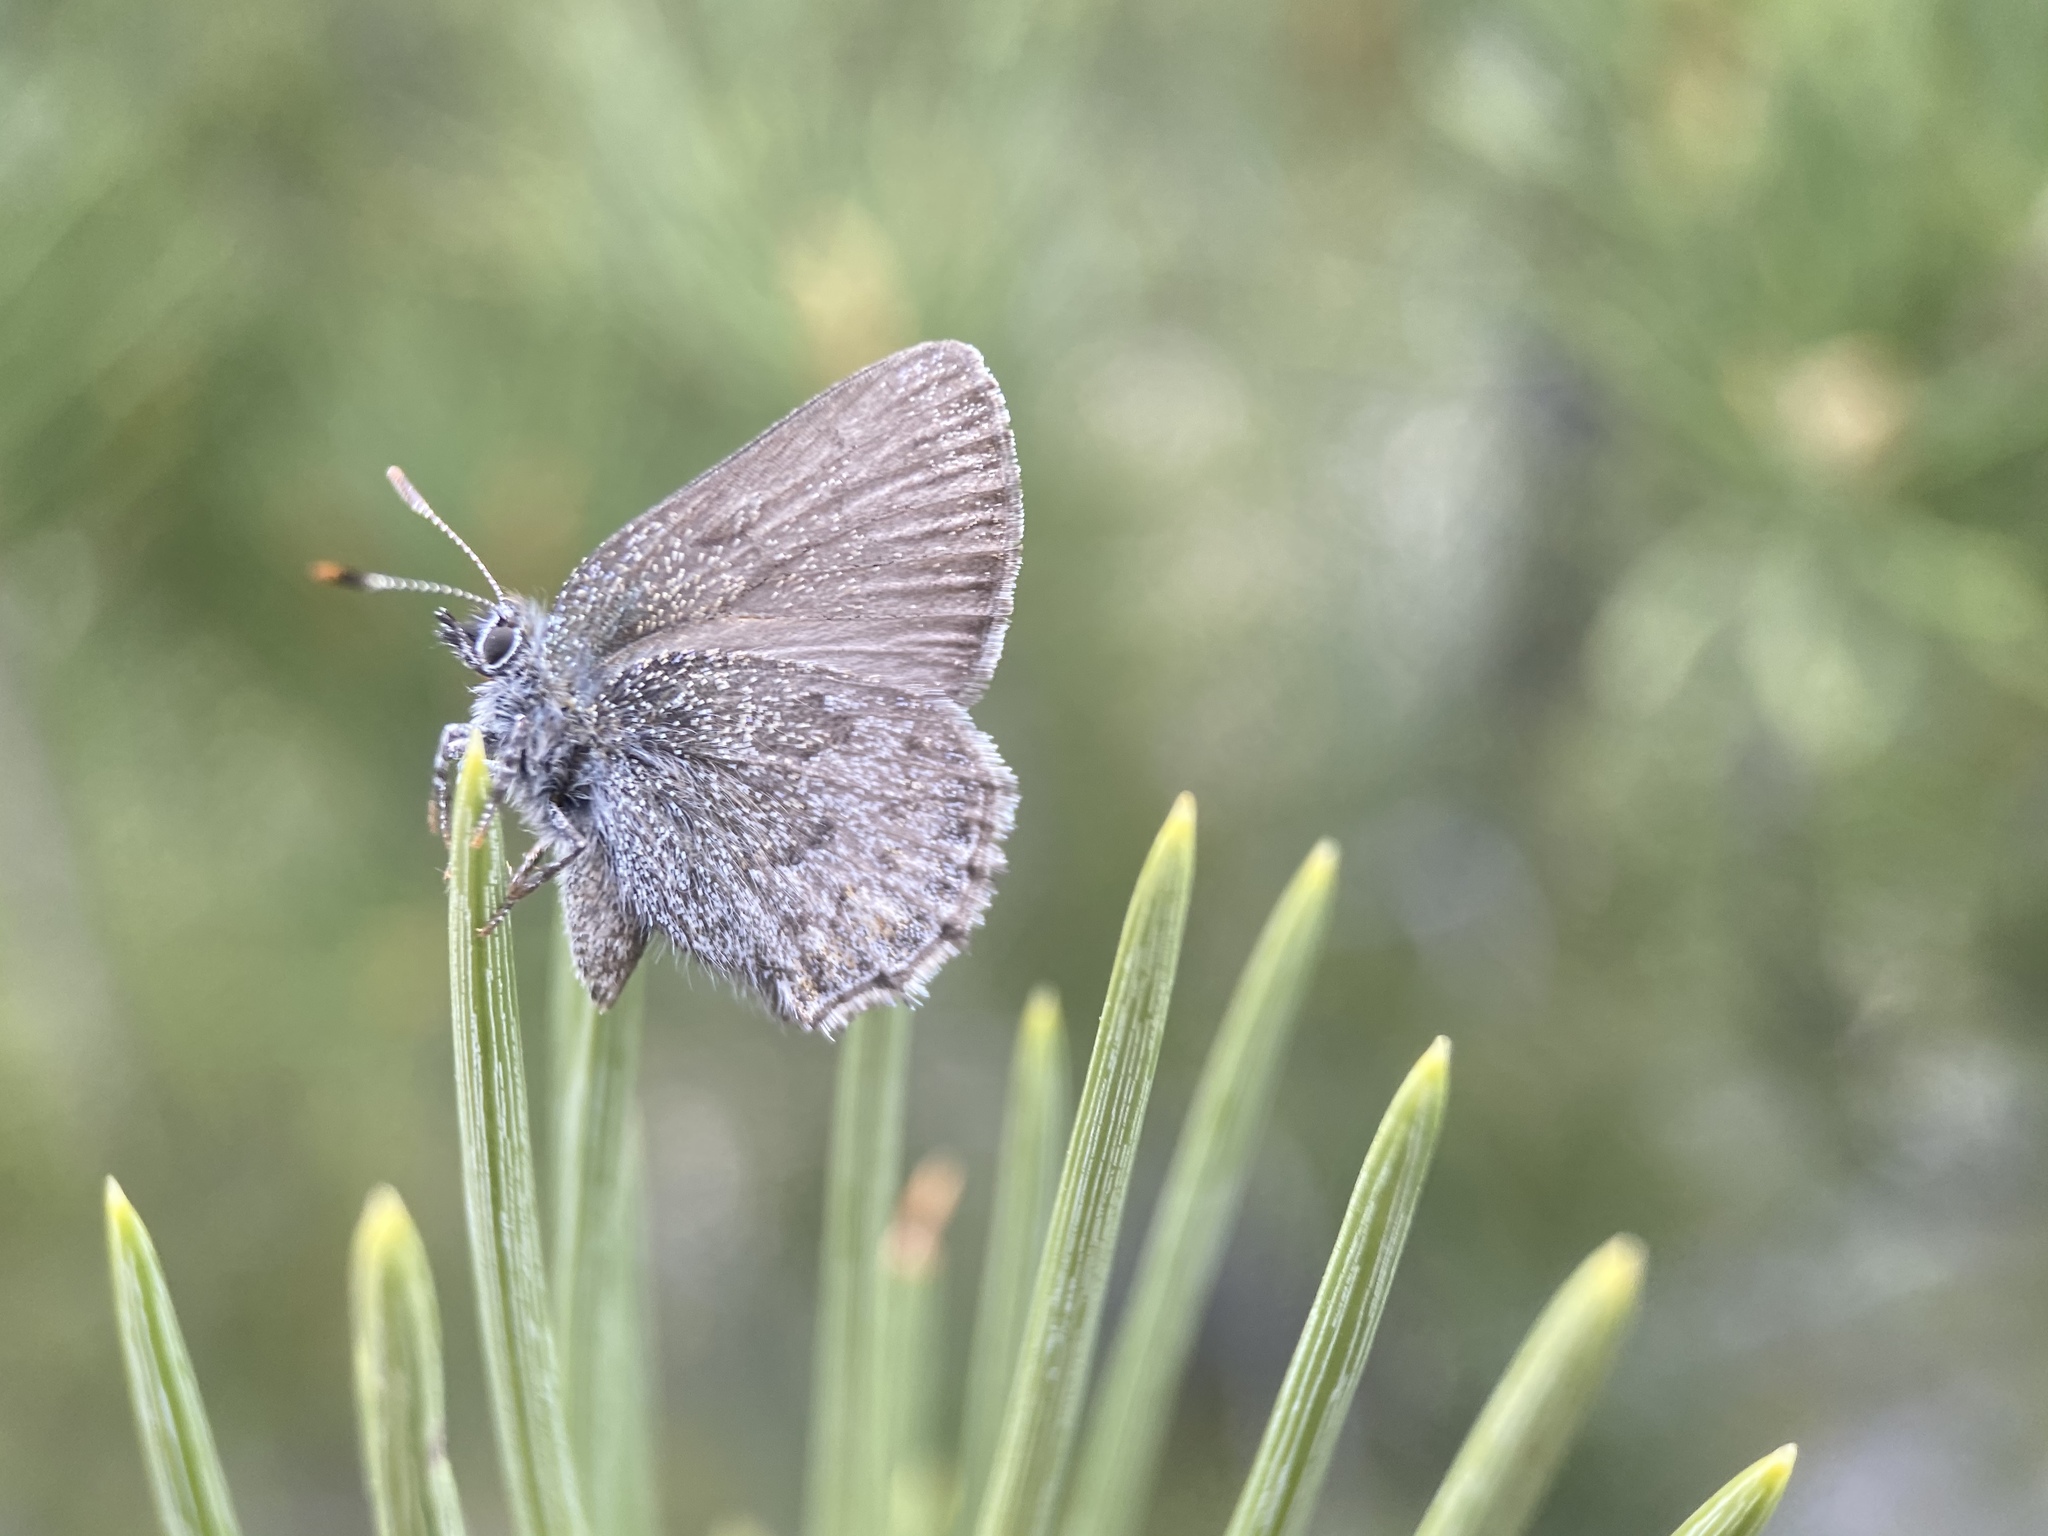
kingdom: Animalia
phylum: Arthropoda
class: Insecta
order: Lepidoptera
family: Lycaenidae
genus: Callophrys
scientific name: Callophrys fotis
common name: Desert elfin
